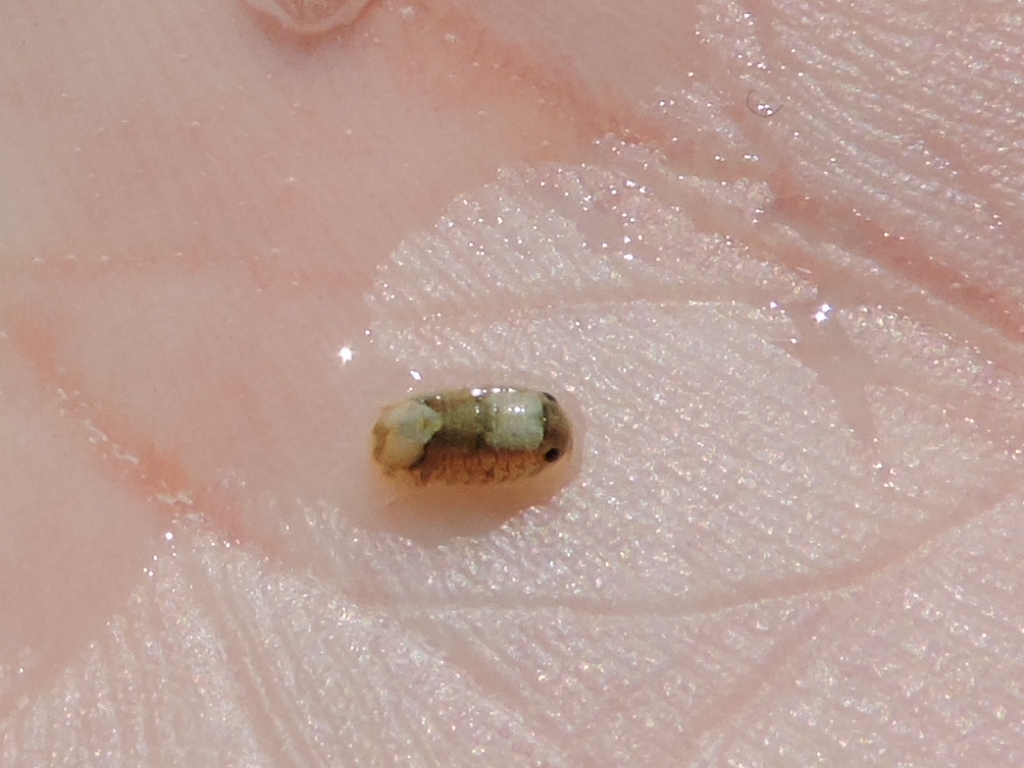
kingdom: Animalia
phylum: Arthropoda
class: Malacostraca
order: Isopoda
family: Sphaeromatidae
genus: Exosphaeroma
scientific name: Exosphaeroma diminutum
